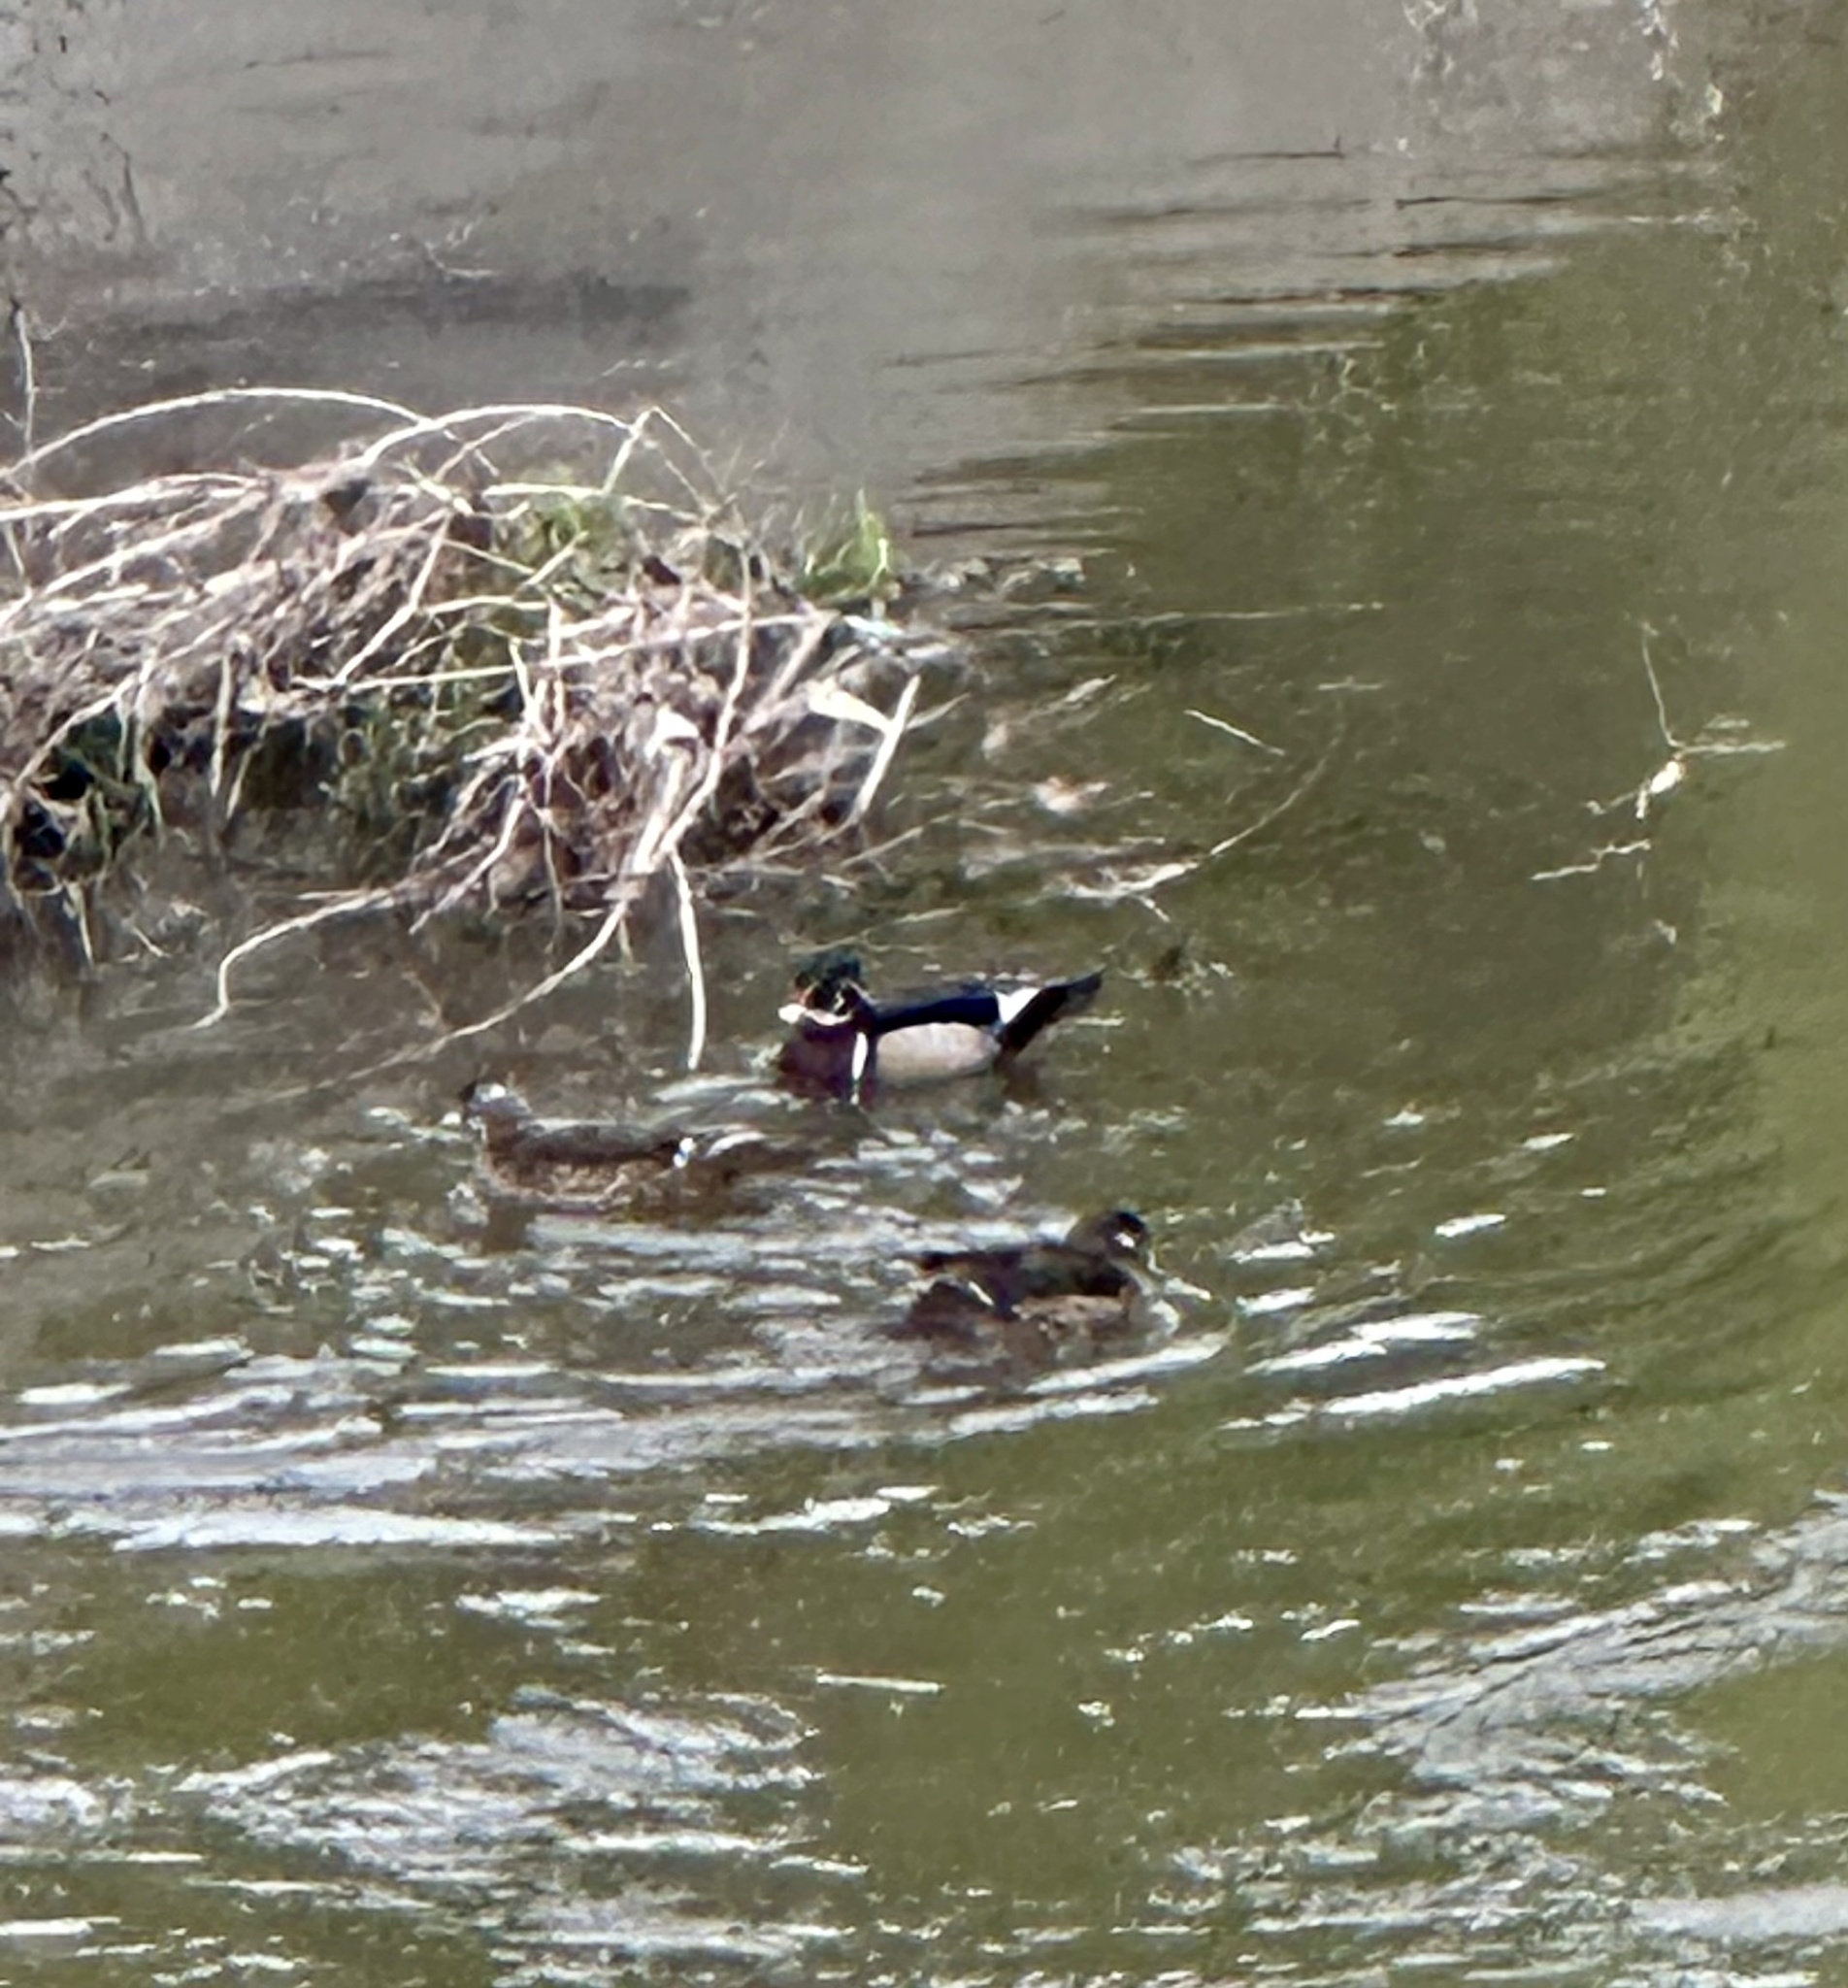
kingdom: Animalia
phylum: Chordata
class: Aves
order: Anseriformes
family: Anatidae
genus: Aix
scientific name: Aix sponsa
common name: Wood duck
